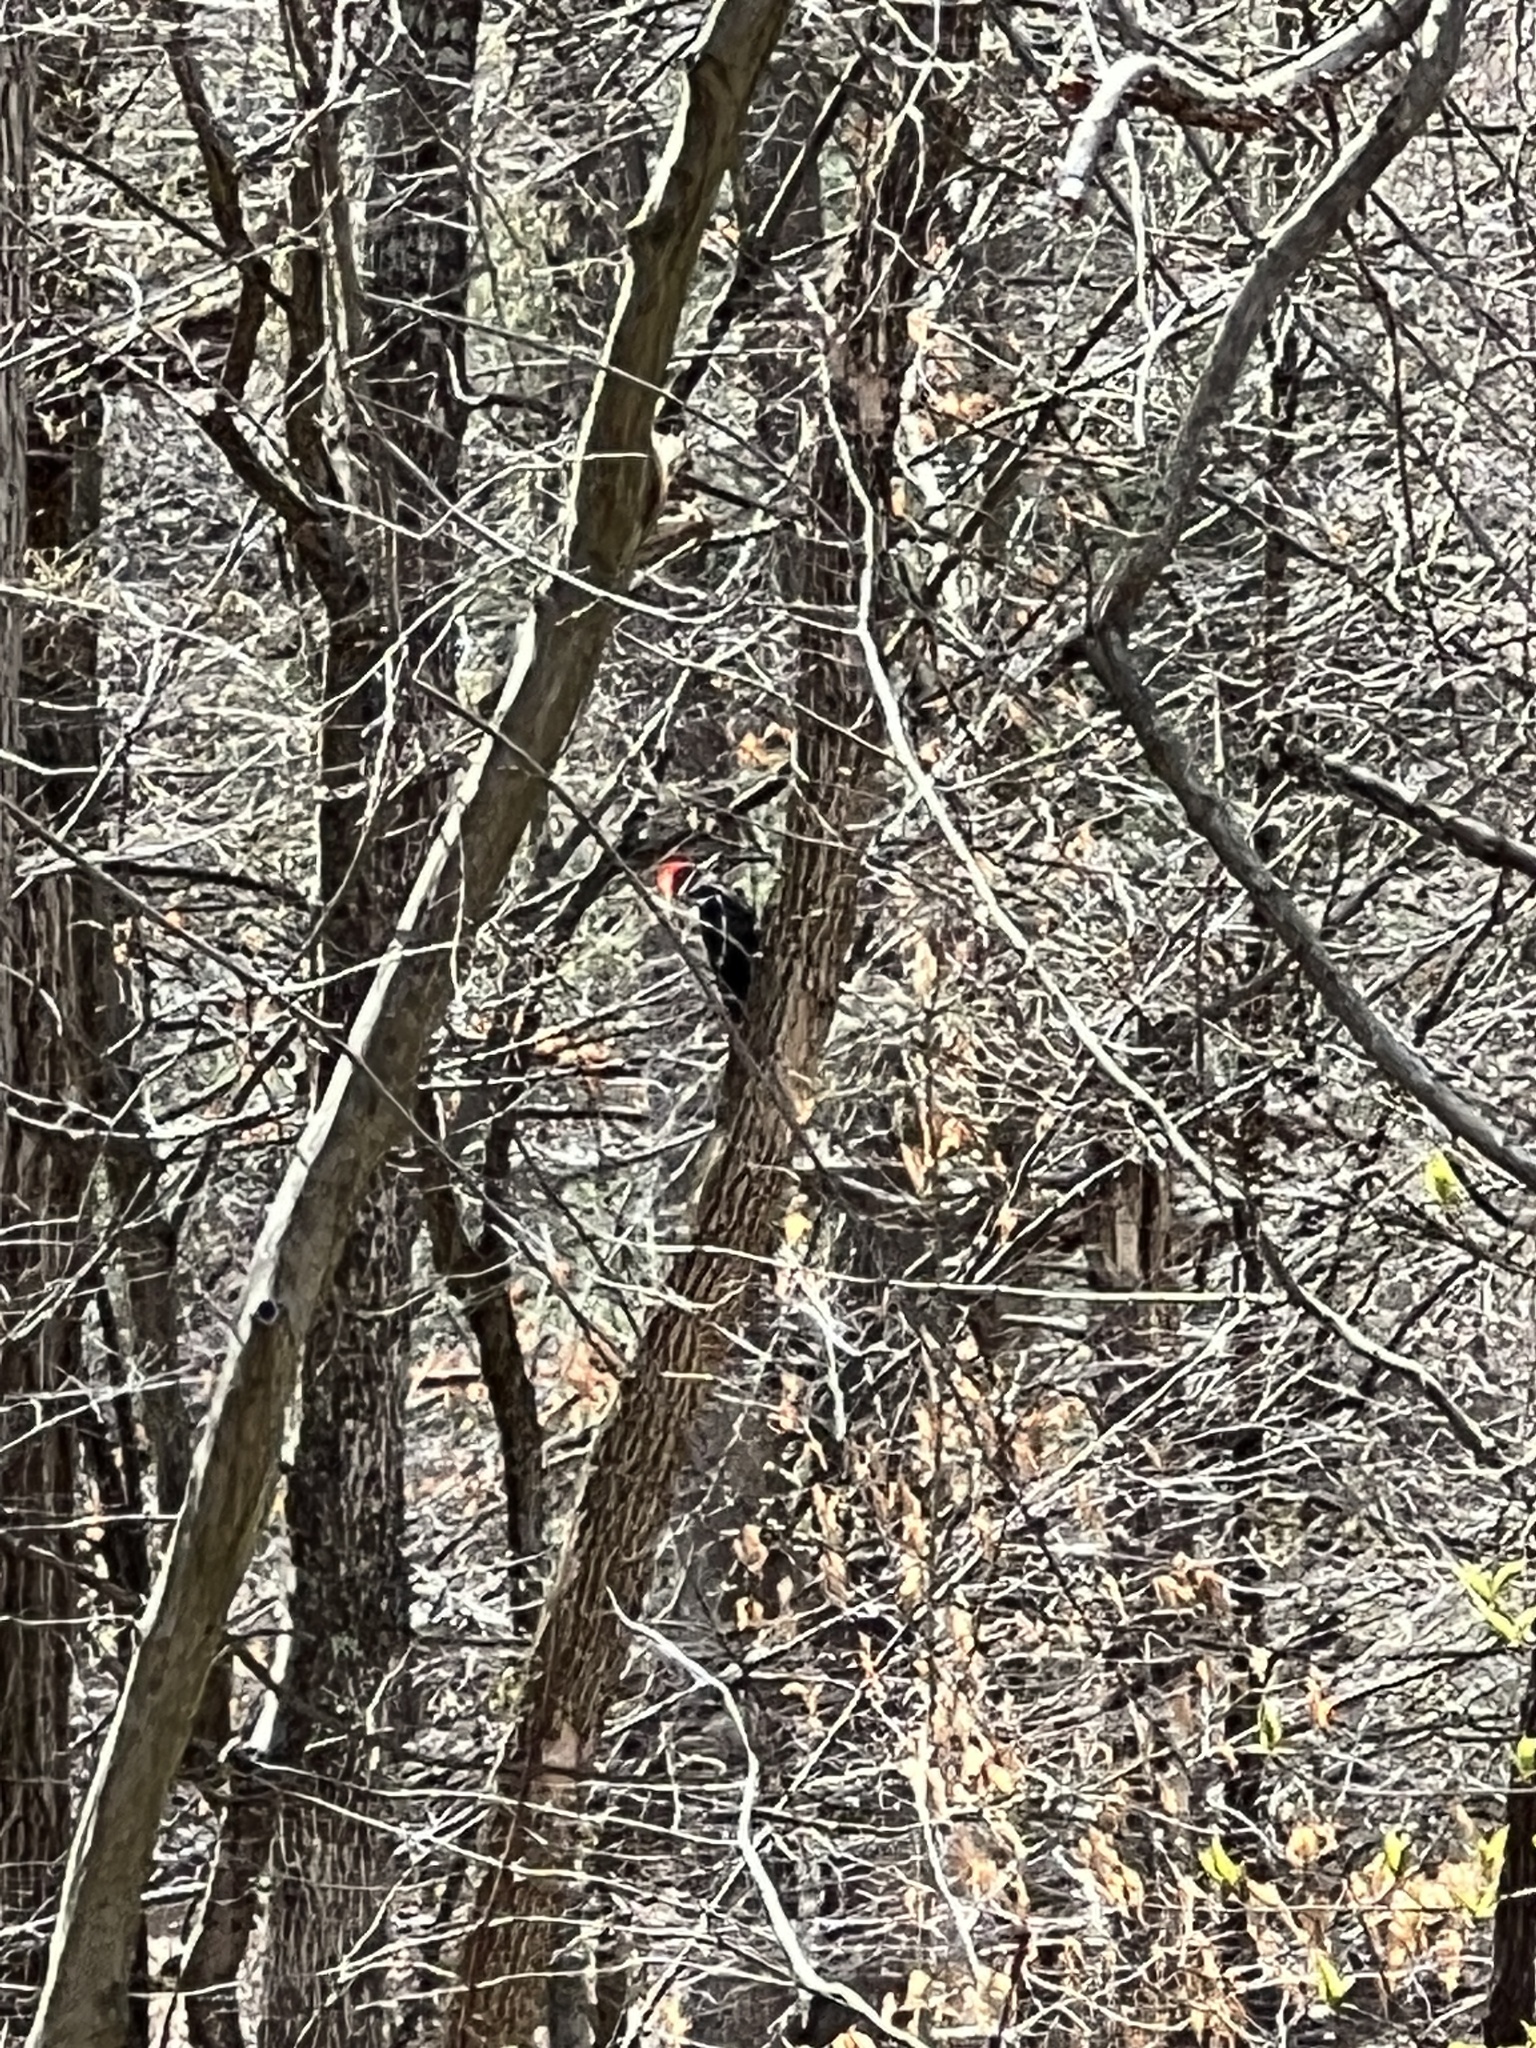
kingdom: Animalia
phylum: Chordata
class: Aves
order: Piciformes
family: Picidae
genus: Dryocopus
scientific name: Dryocopus pileatus
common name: Pileated woodpecker
